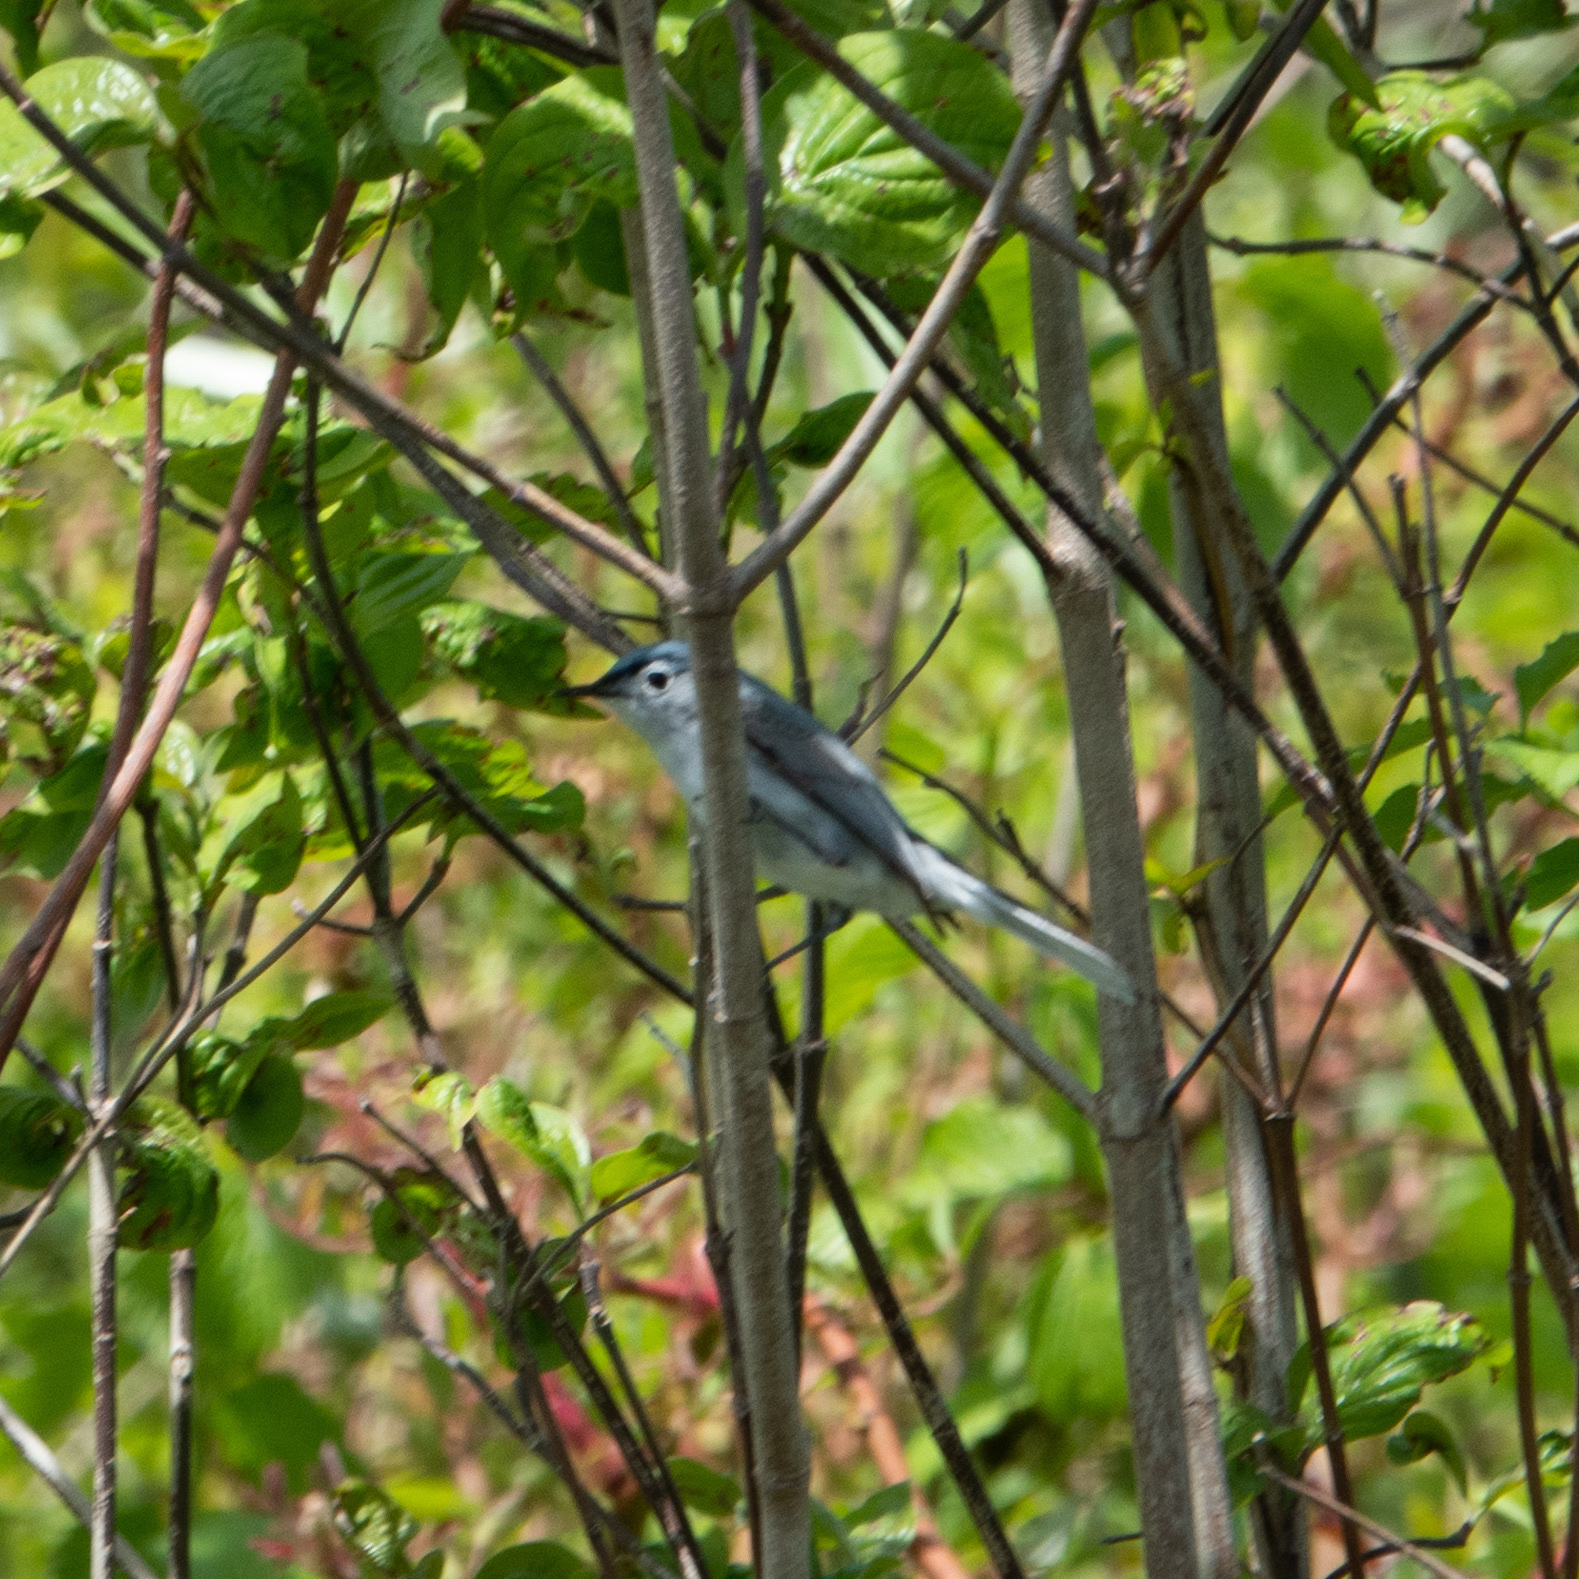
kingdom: Animalia
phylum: Chordata
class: Aves
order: Passeriformes
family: Polioptilidae
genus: Polioptila
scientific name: Polioptila caerulea
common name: Blue-gray gnatcatcher
